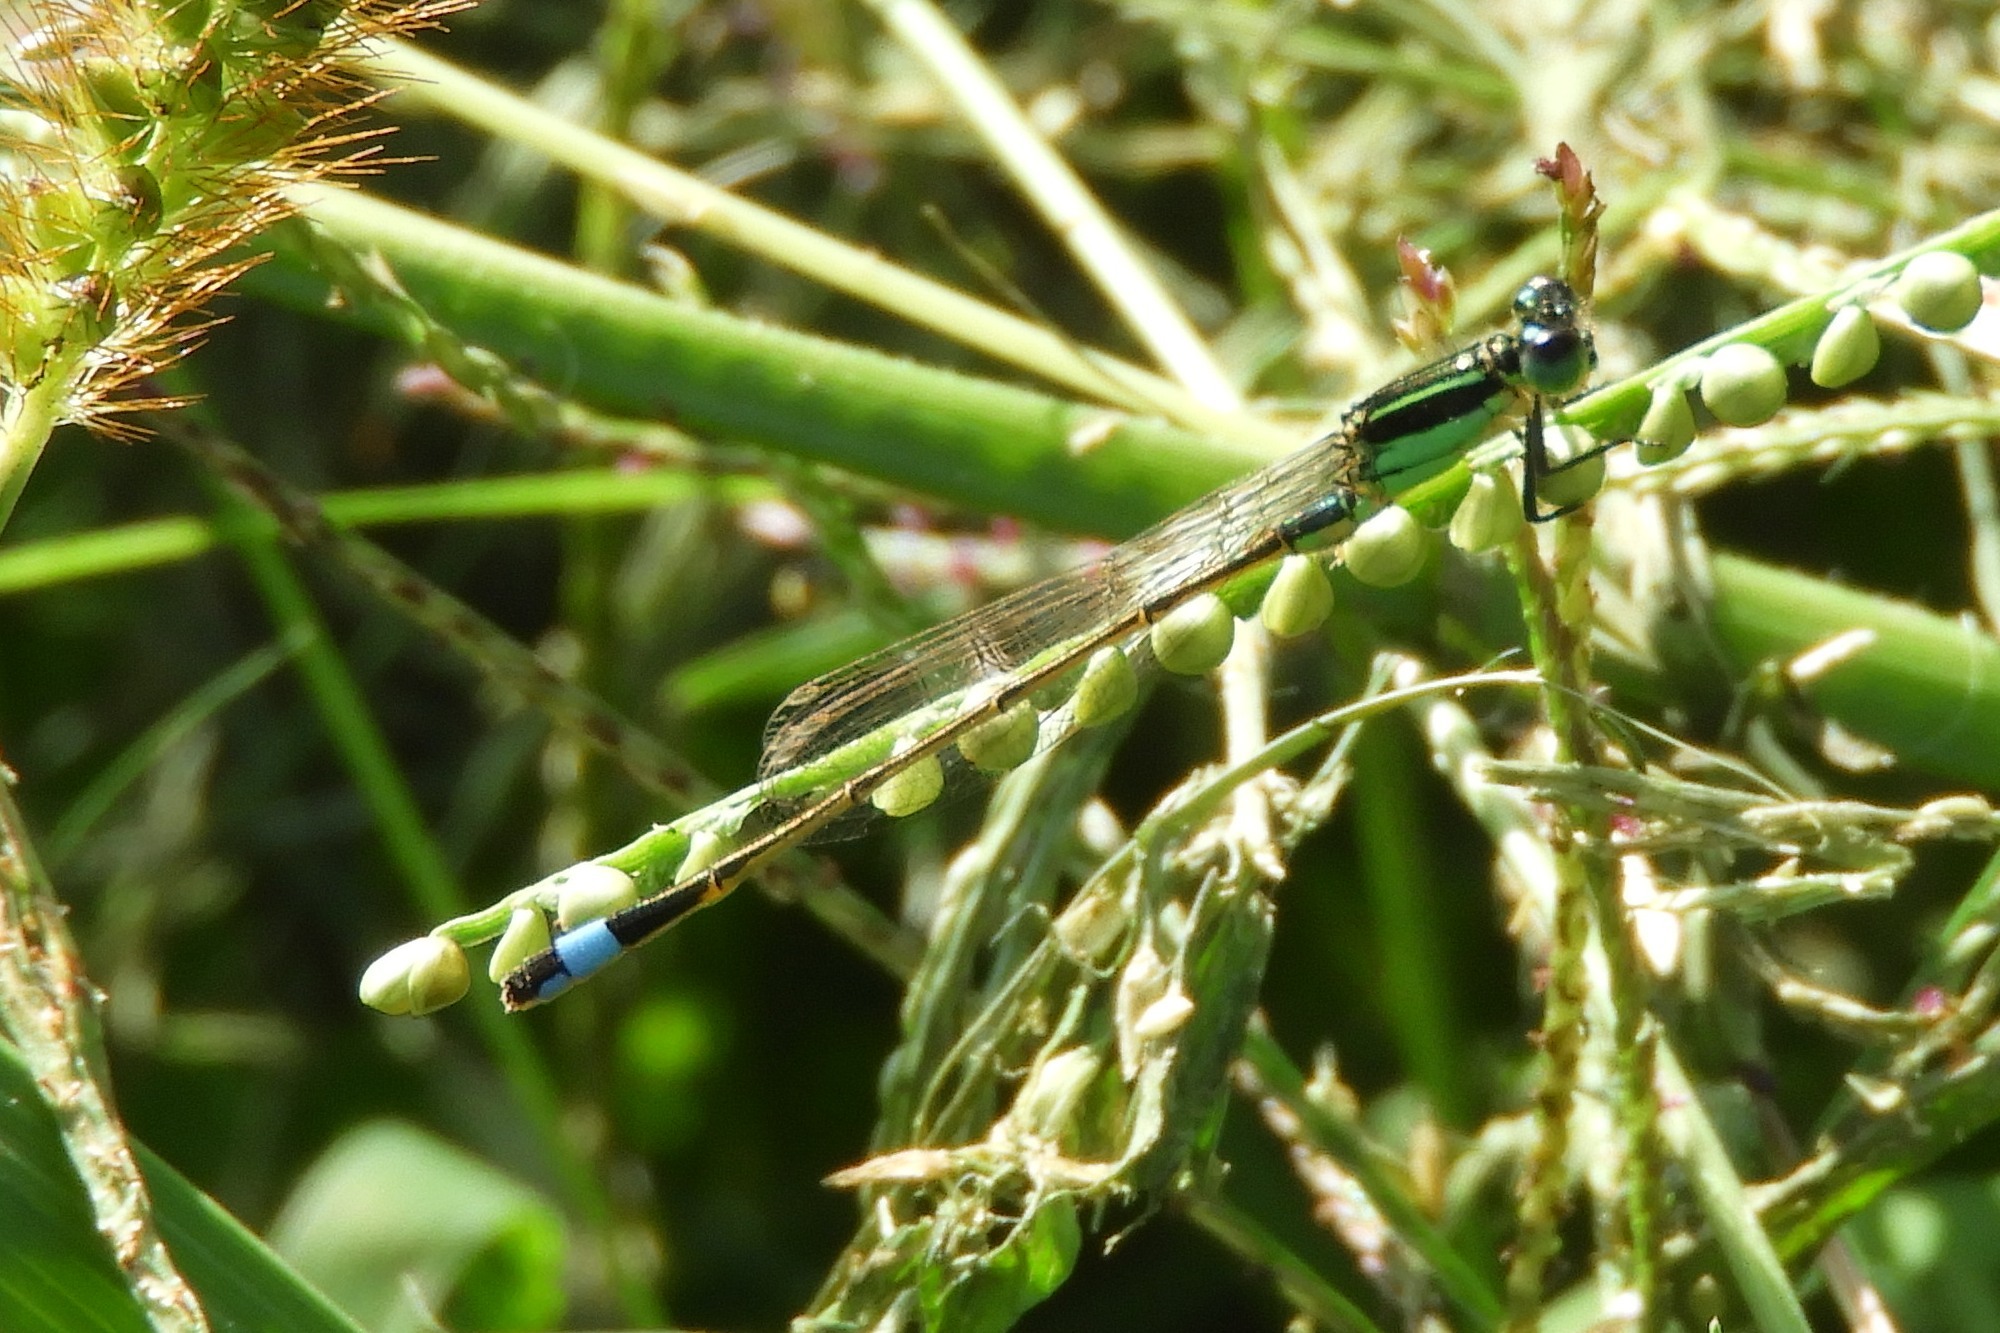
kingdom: Animalia
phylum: Arthropoda
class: Insecta
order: Odonata
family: Coenagrionidae
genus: Ischnura
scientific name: Ischnura ramburii
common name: Rambur's forktail
